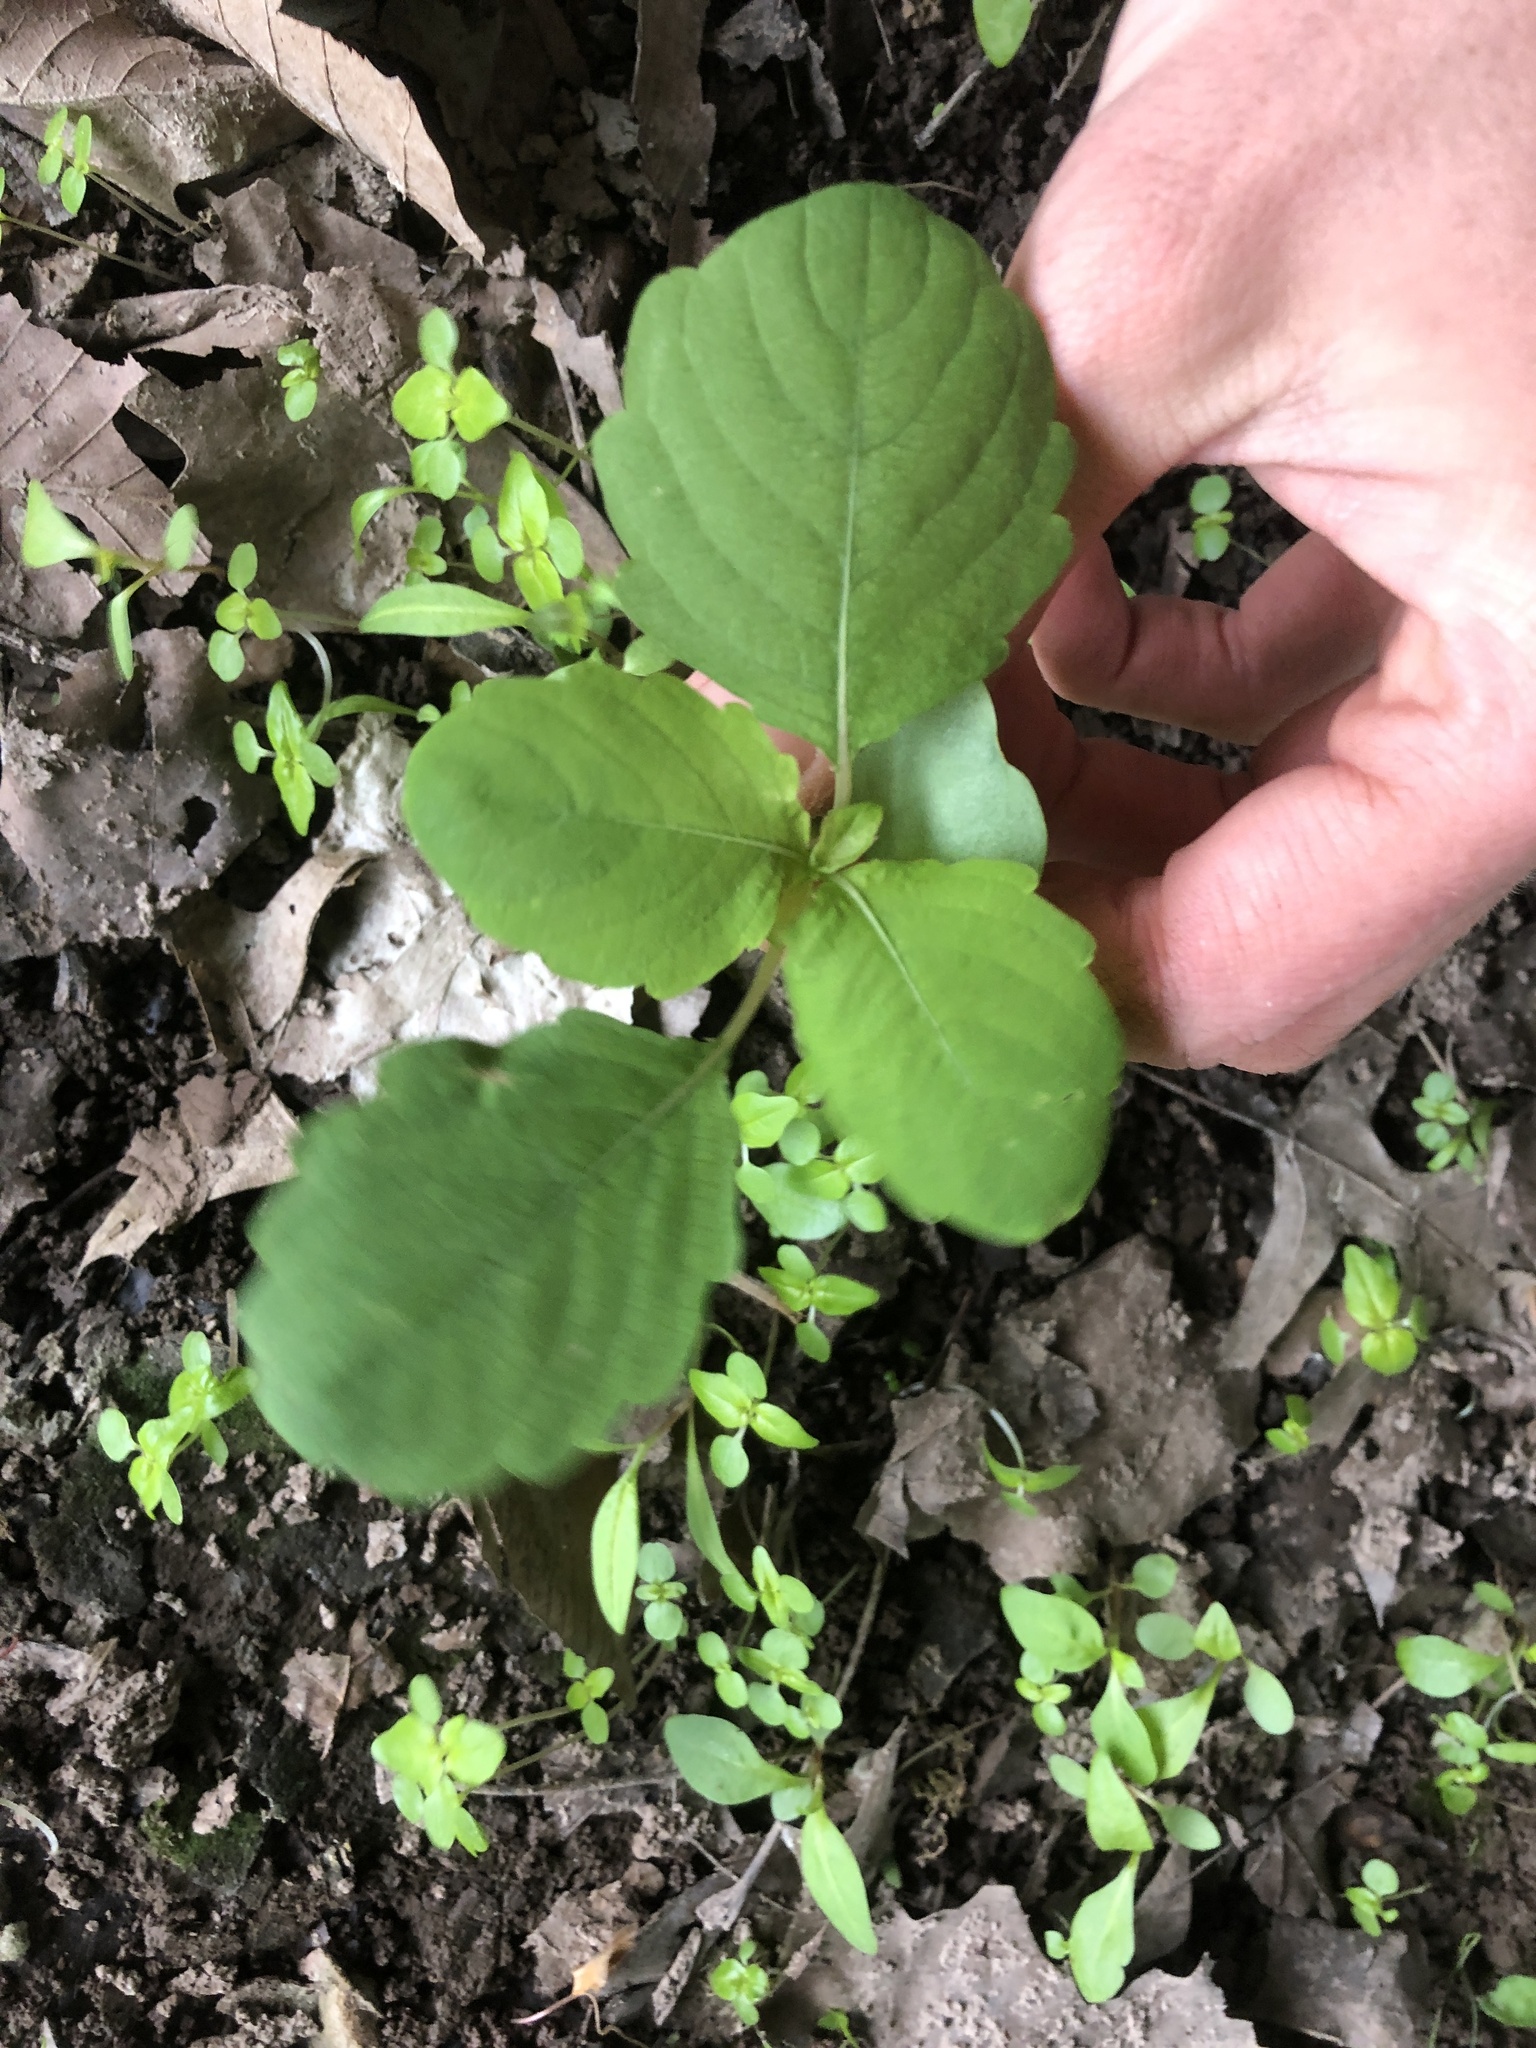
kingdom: Plantae
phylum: Tracheophyta
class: Magnoliopsida
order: Ericales
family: Balsaminaceae
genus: Impatiens
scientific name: Impatiens
